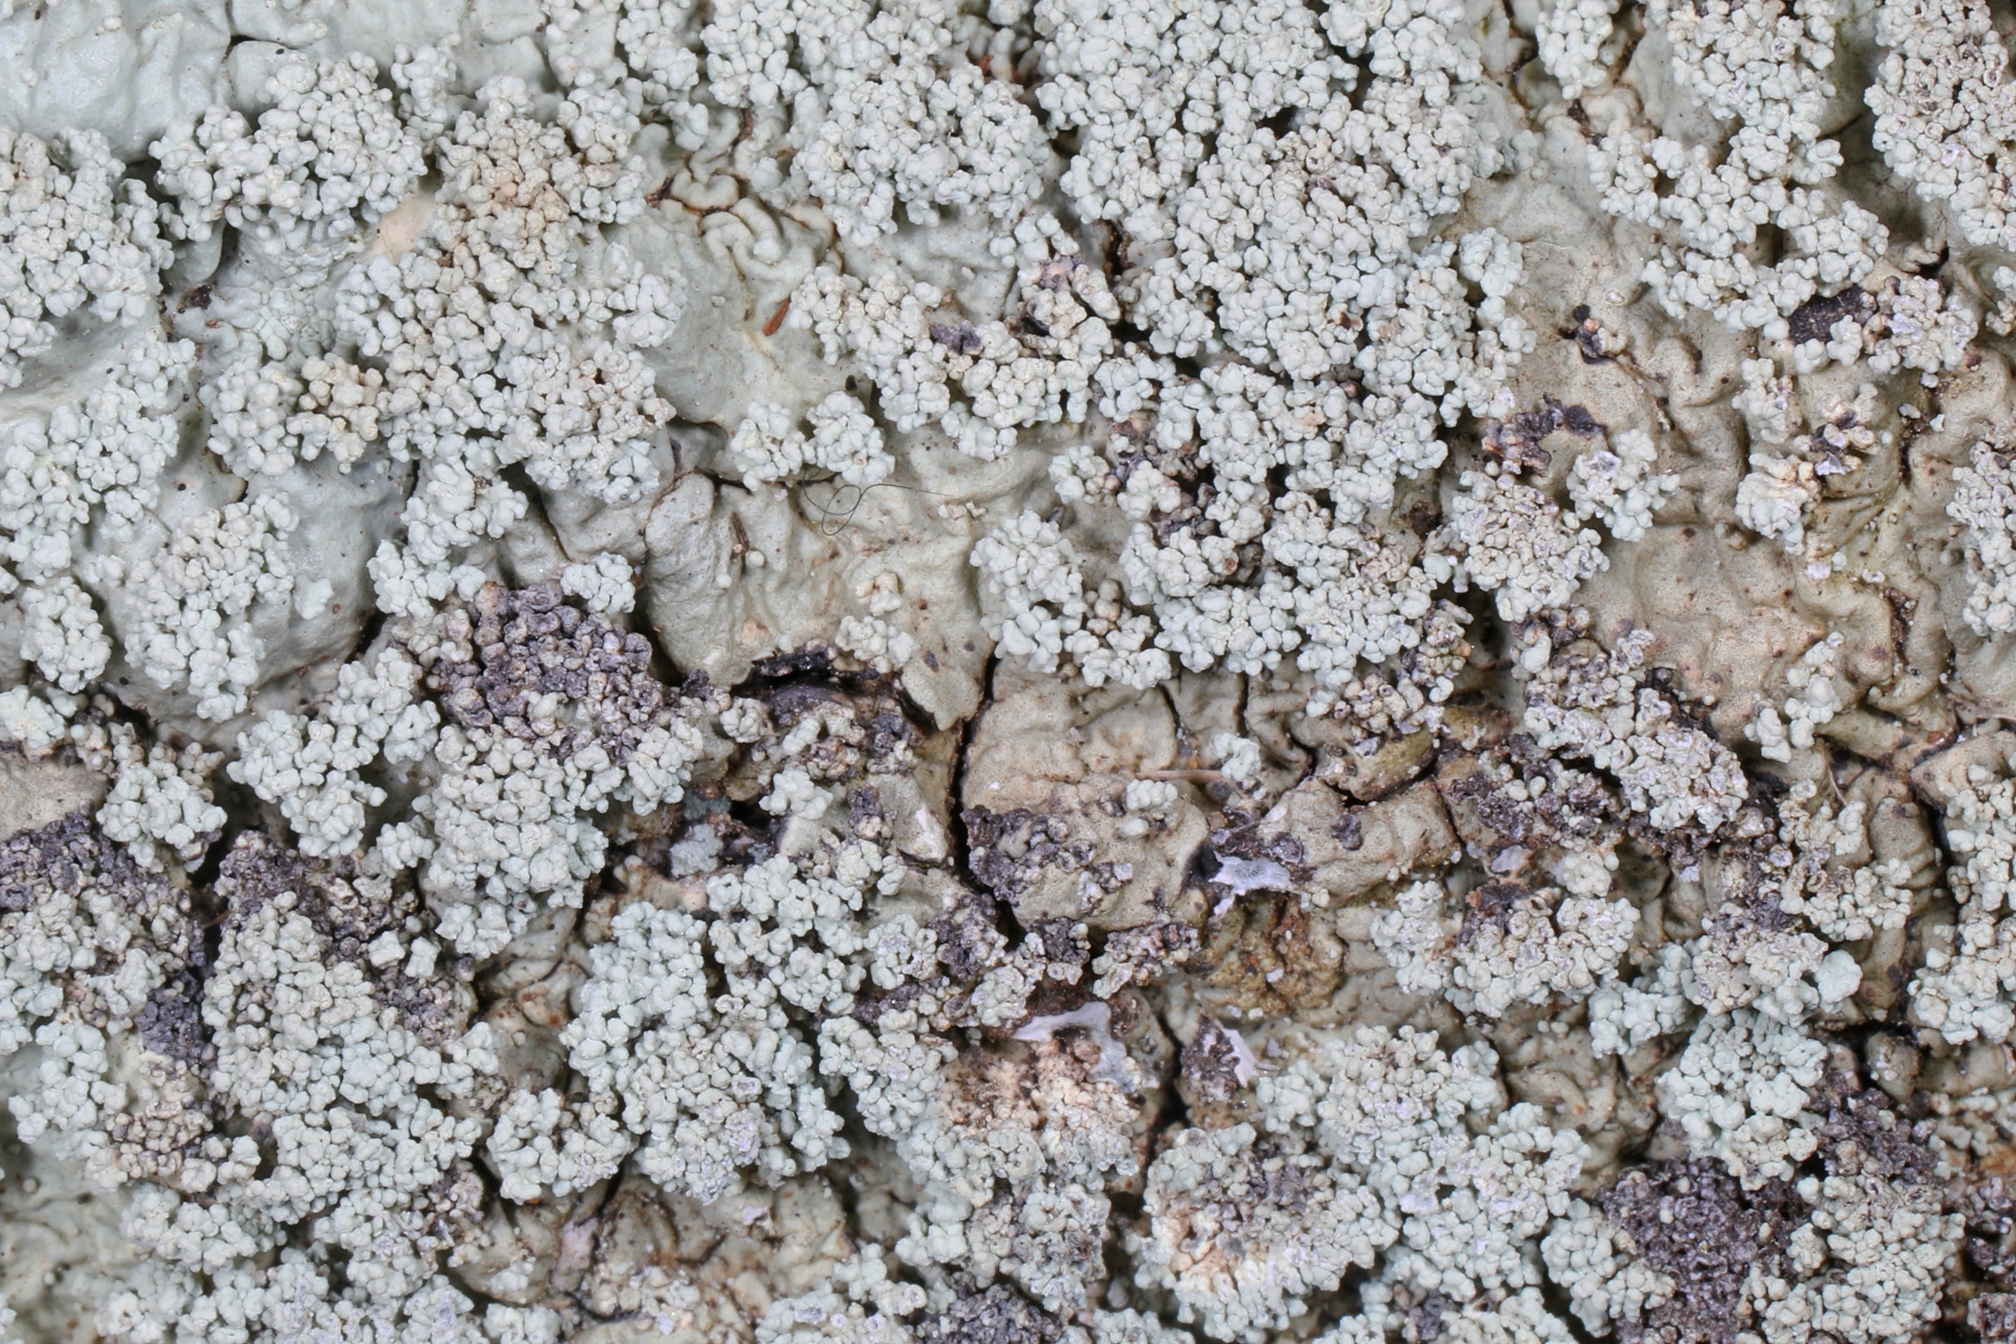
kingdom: Fungi
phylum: Ascomycota
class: Lecanoromycetes
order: Lecanorales
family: Parmeliaceae
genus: Flavoparmelia
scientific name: Flavoparmelia baltimorensis
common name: Rock greenshield
